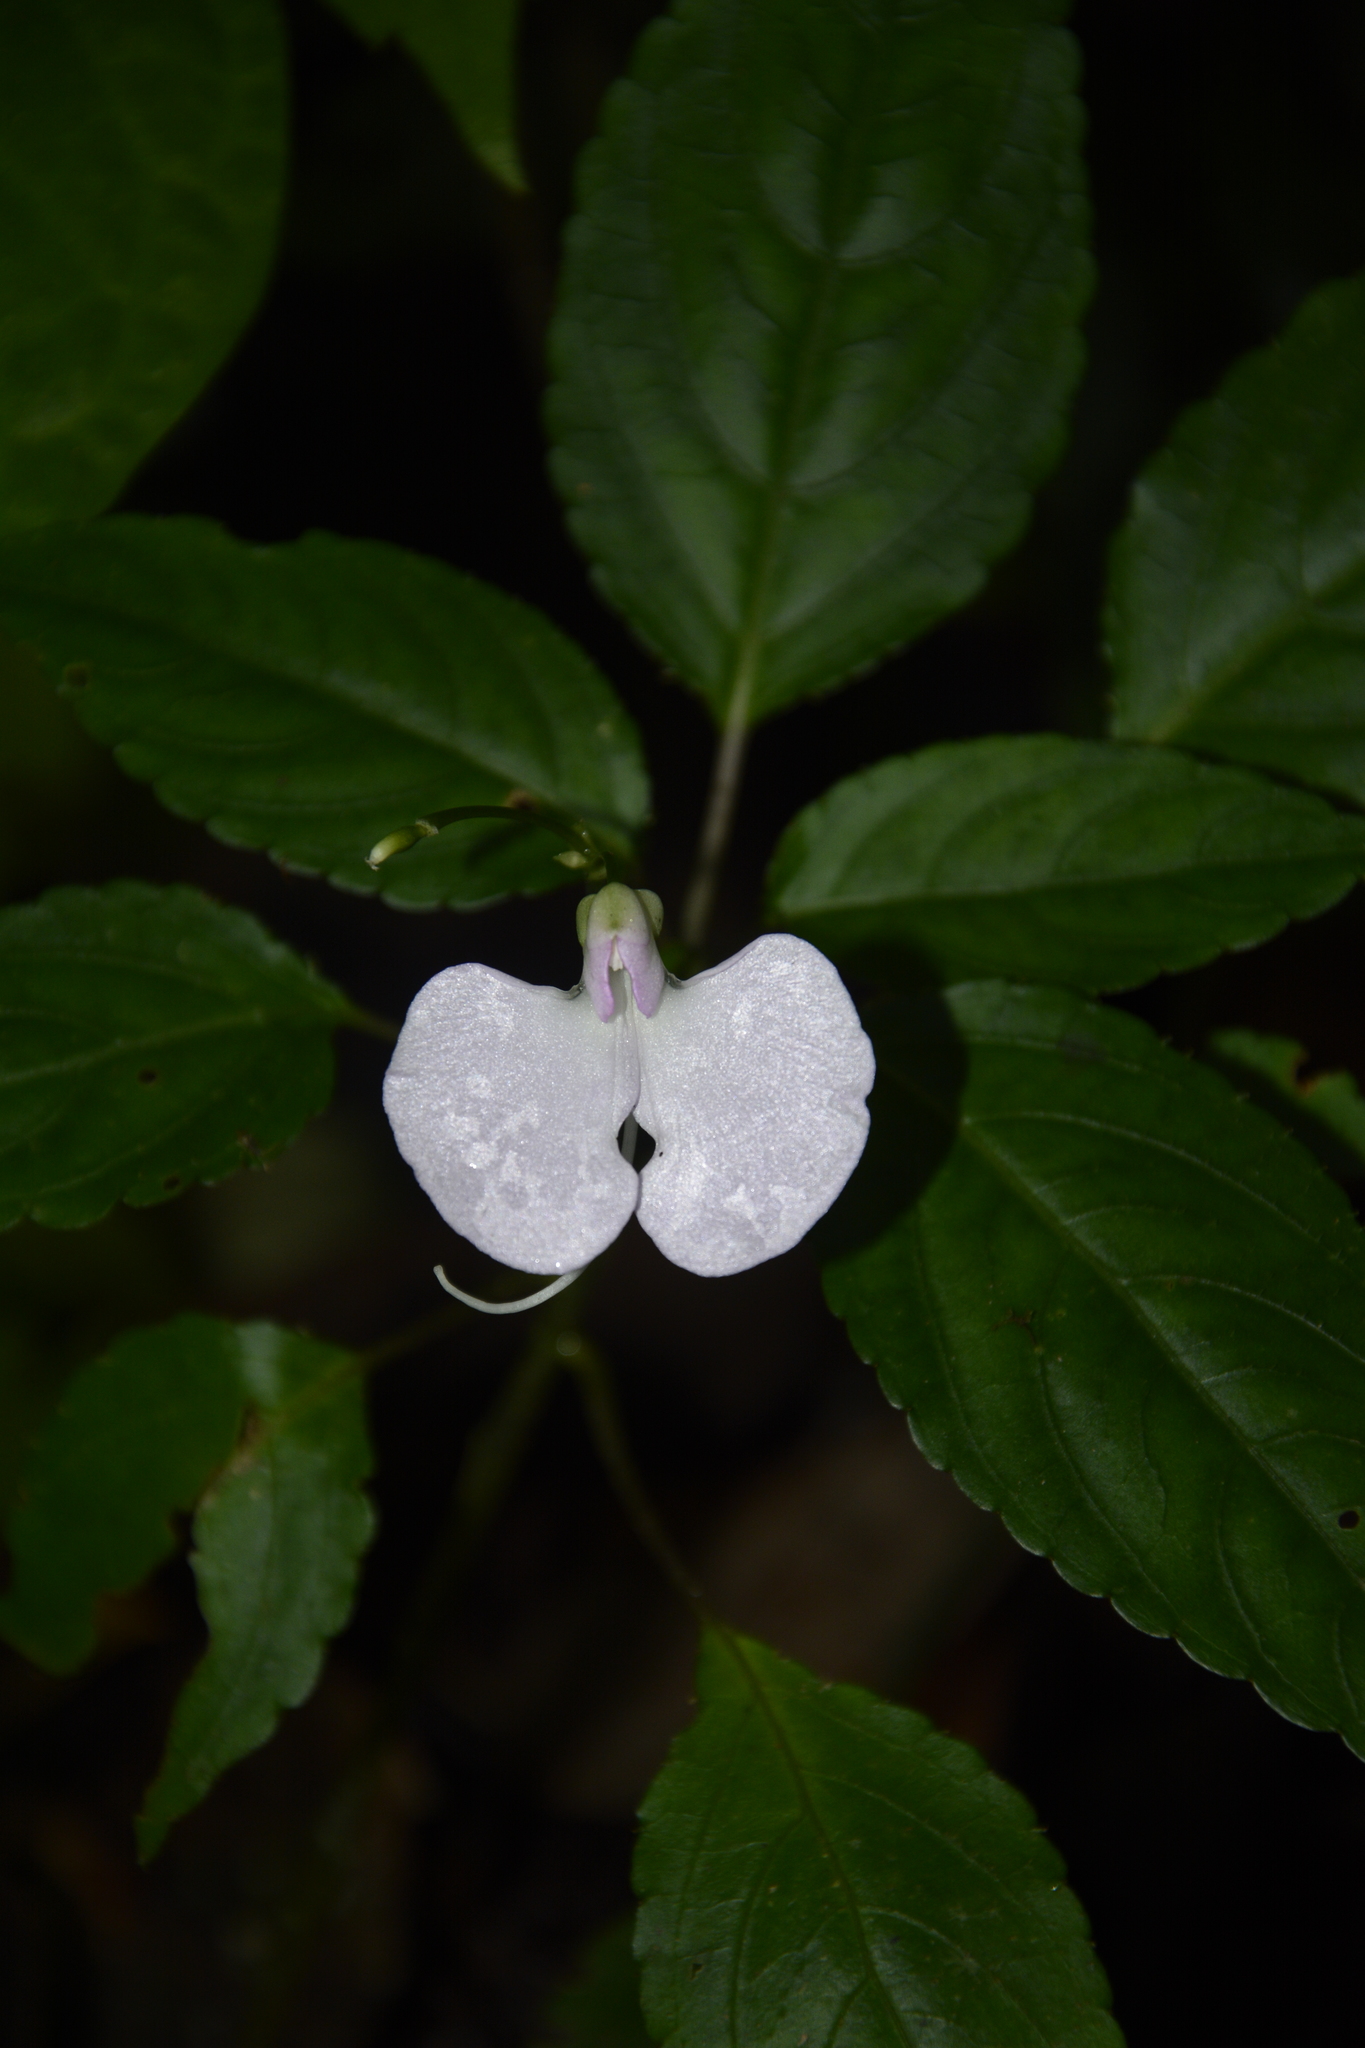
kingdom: Plantae
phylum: Tracheophyta
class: Magnoliopsida
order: Ericales
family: Balsaminaceae
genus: Impatiens
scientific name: Impatiens leptura
